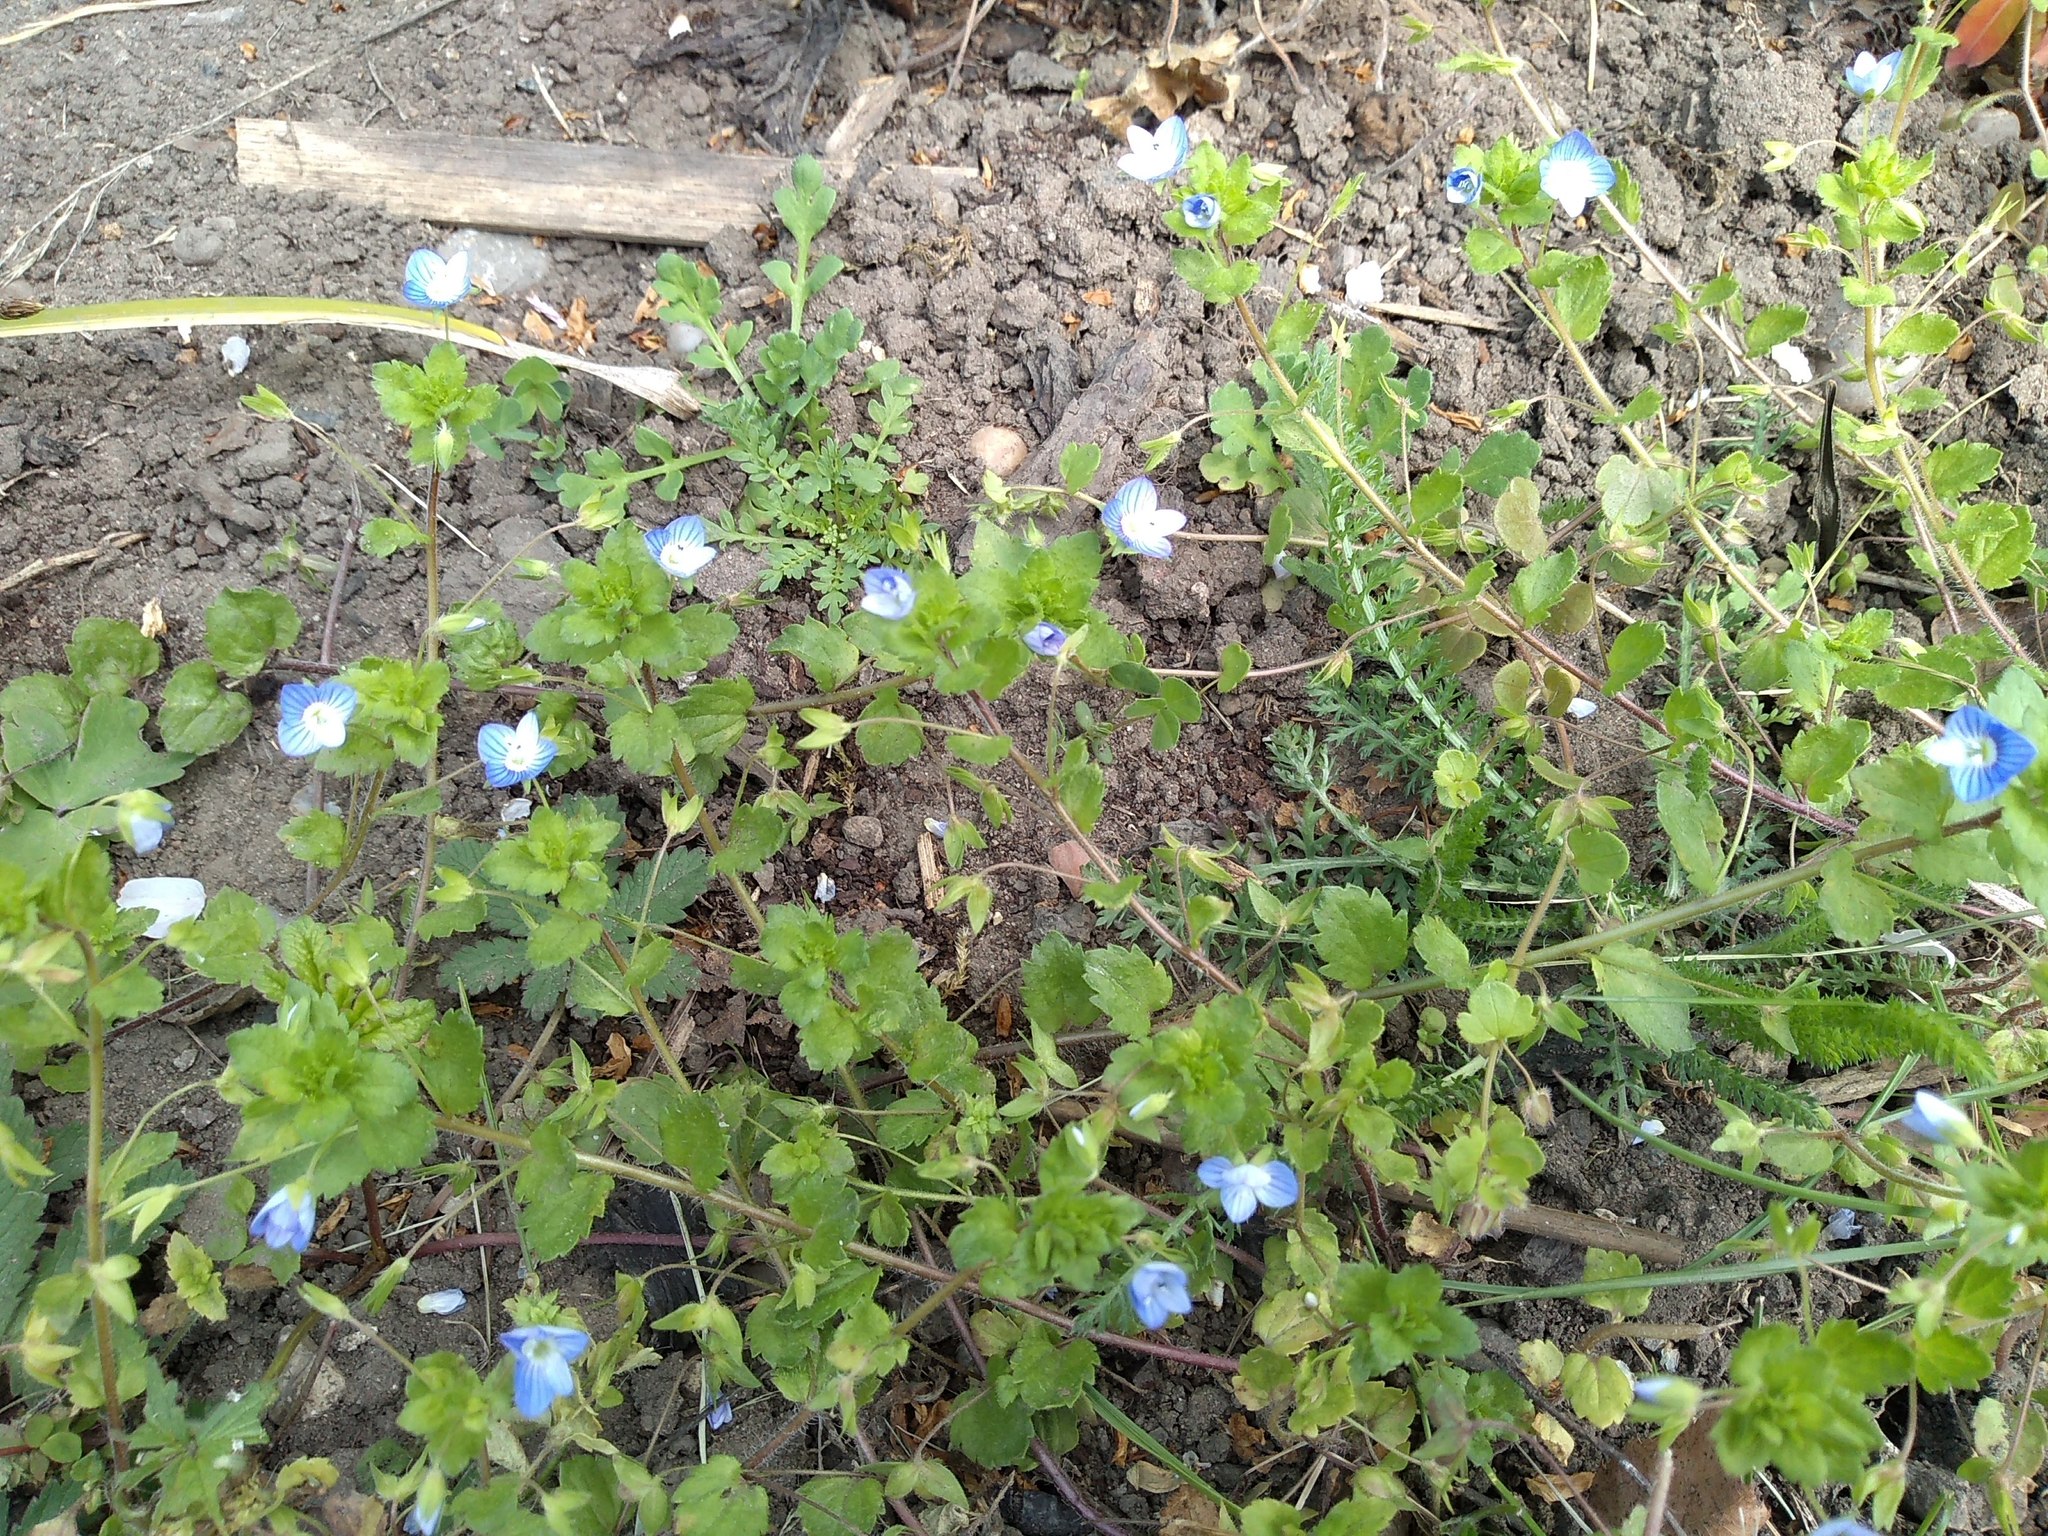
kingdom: Plantae
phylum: Tracheophyta
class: Magnoliopsida
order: Lamiales
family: Plantaginaceae
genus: Veronica
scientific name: Veronica persica
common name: Common field-speedwell
